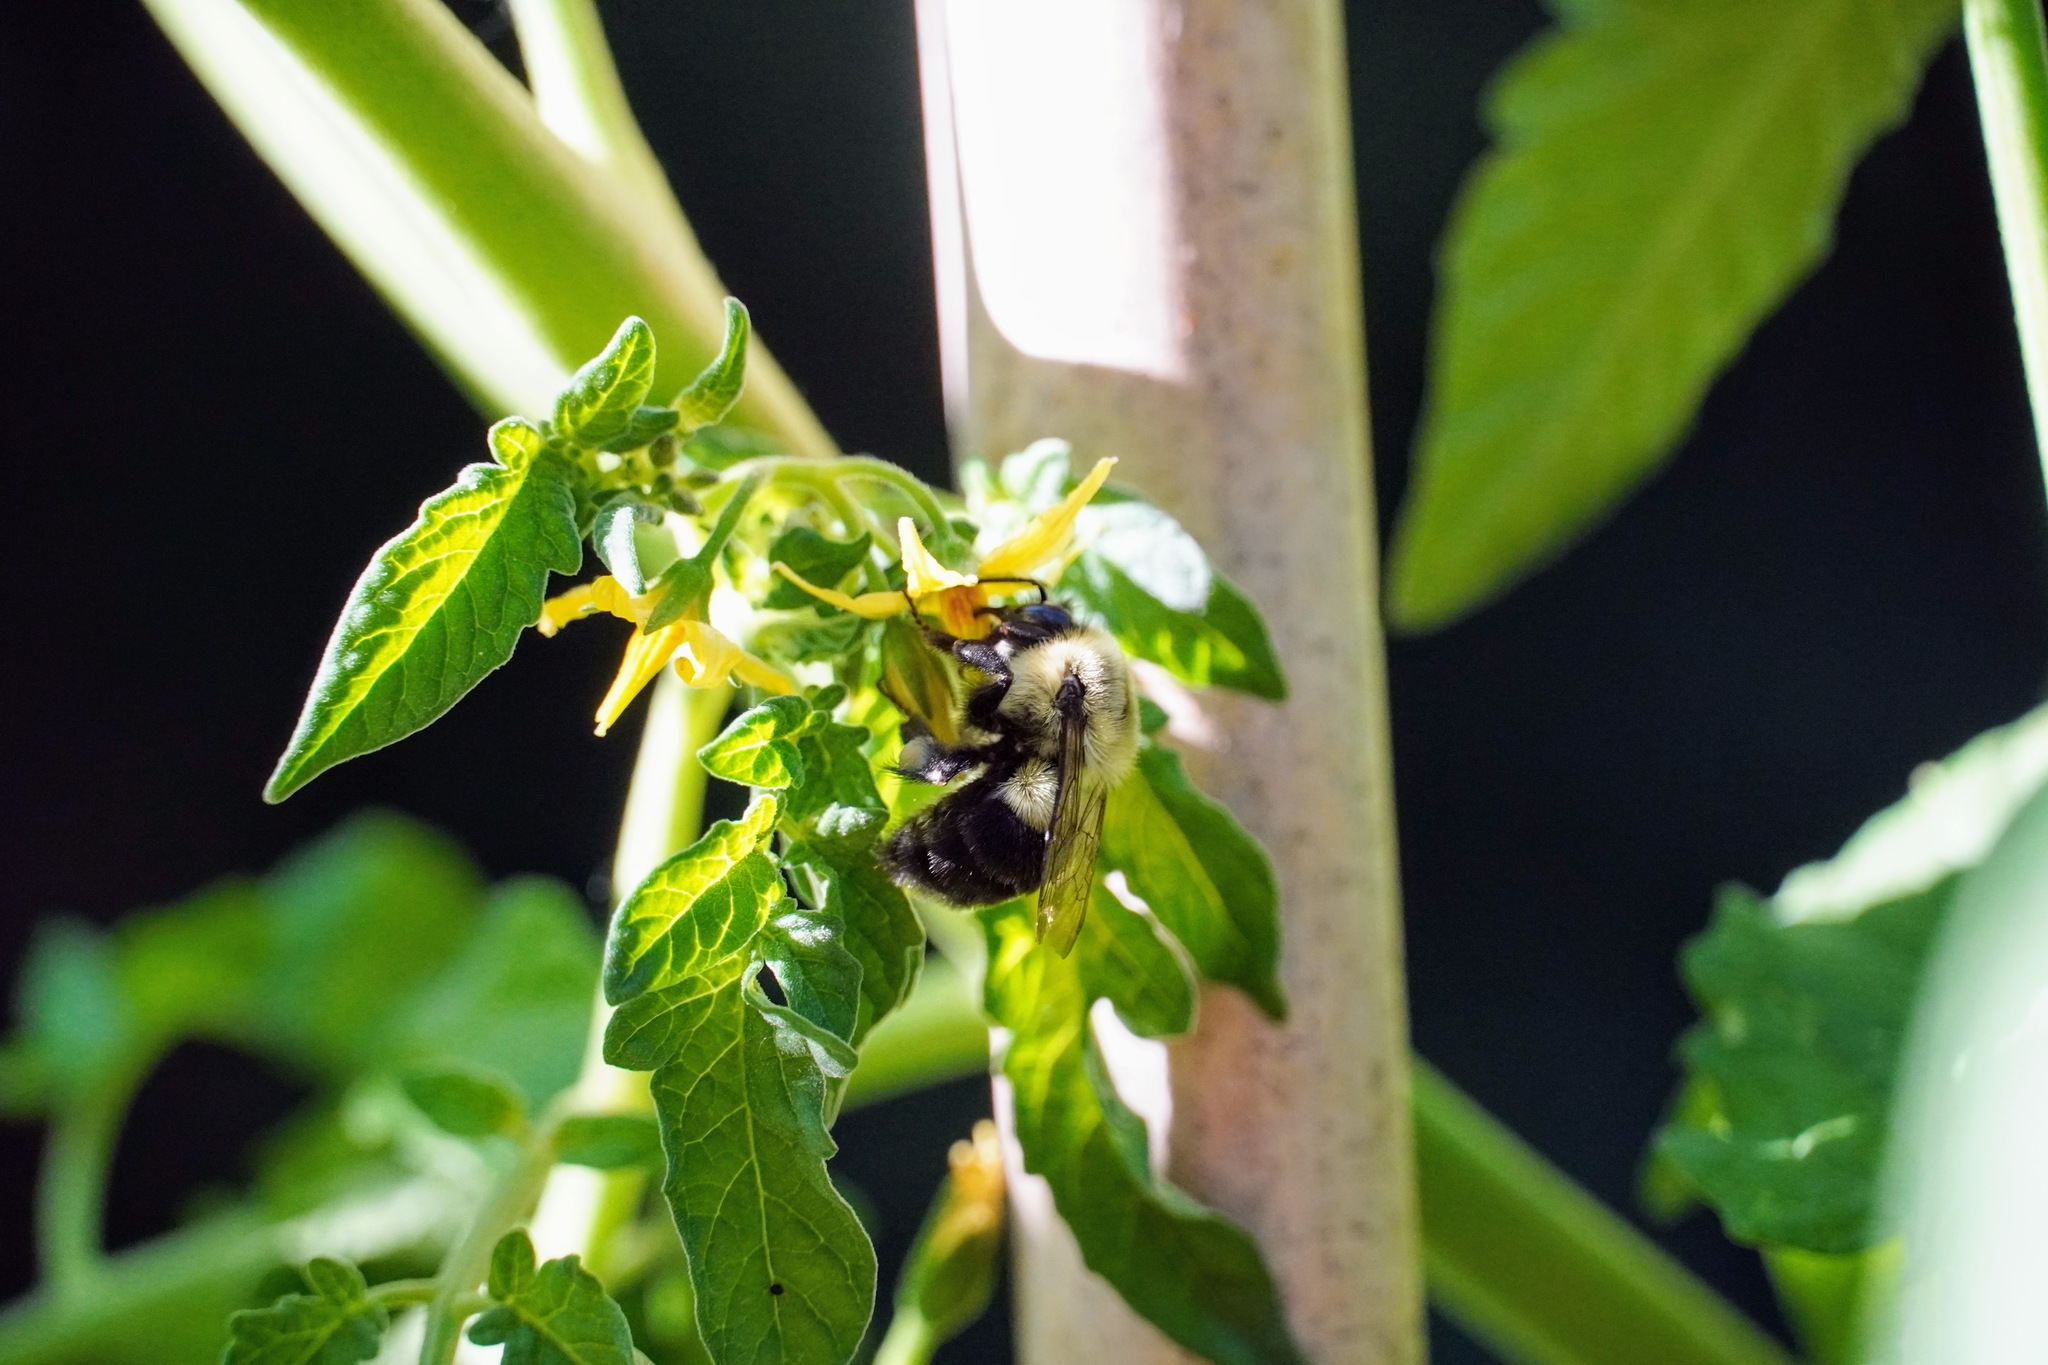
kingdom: Animalia
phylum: Arthropoda
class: Insecta
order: Hymenoptera
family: Apidae
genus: Bombus
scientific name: Bombus impatiens
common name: Common eastern bumble bee
